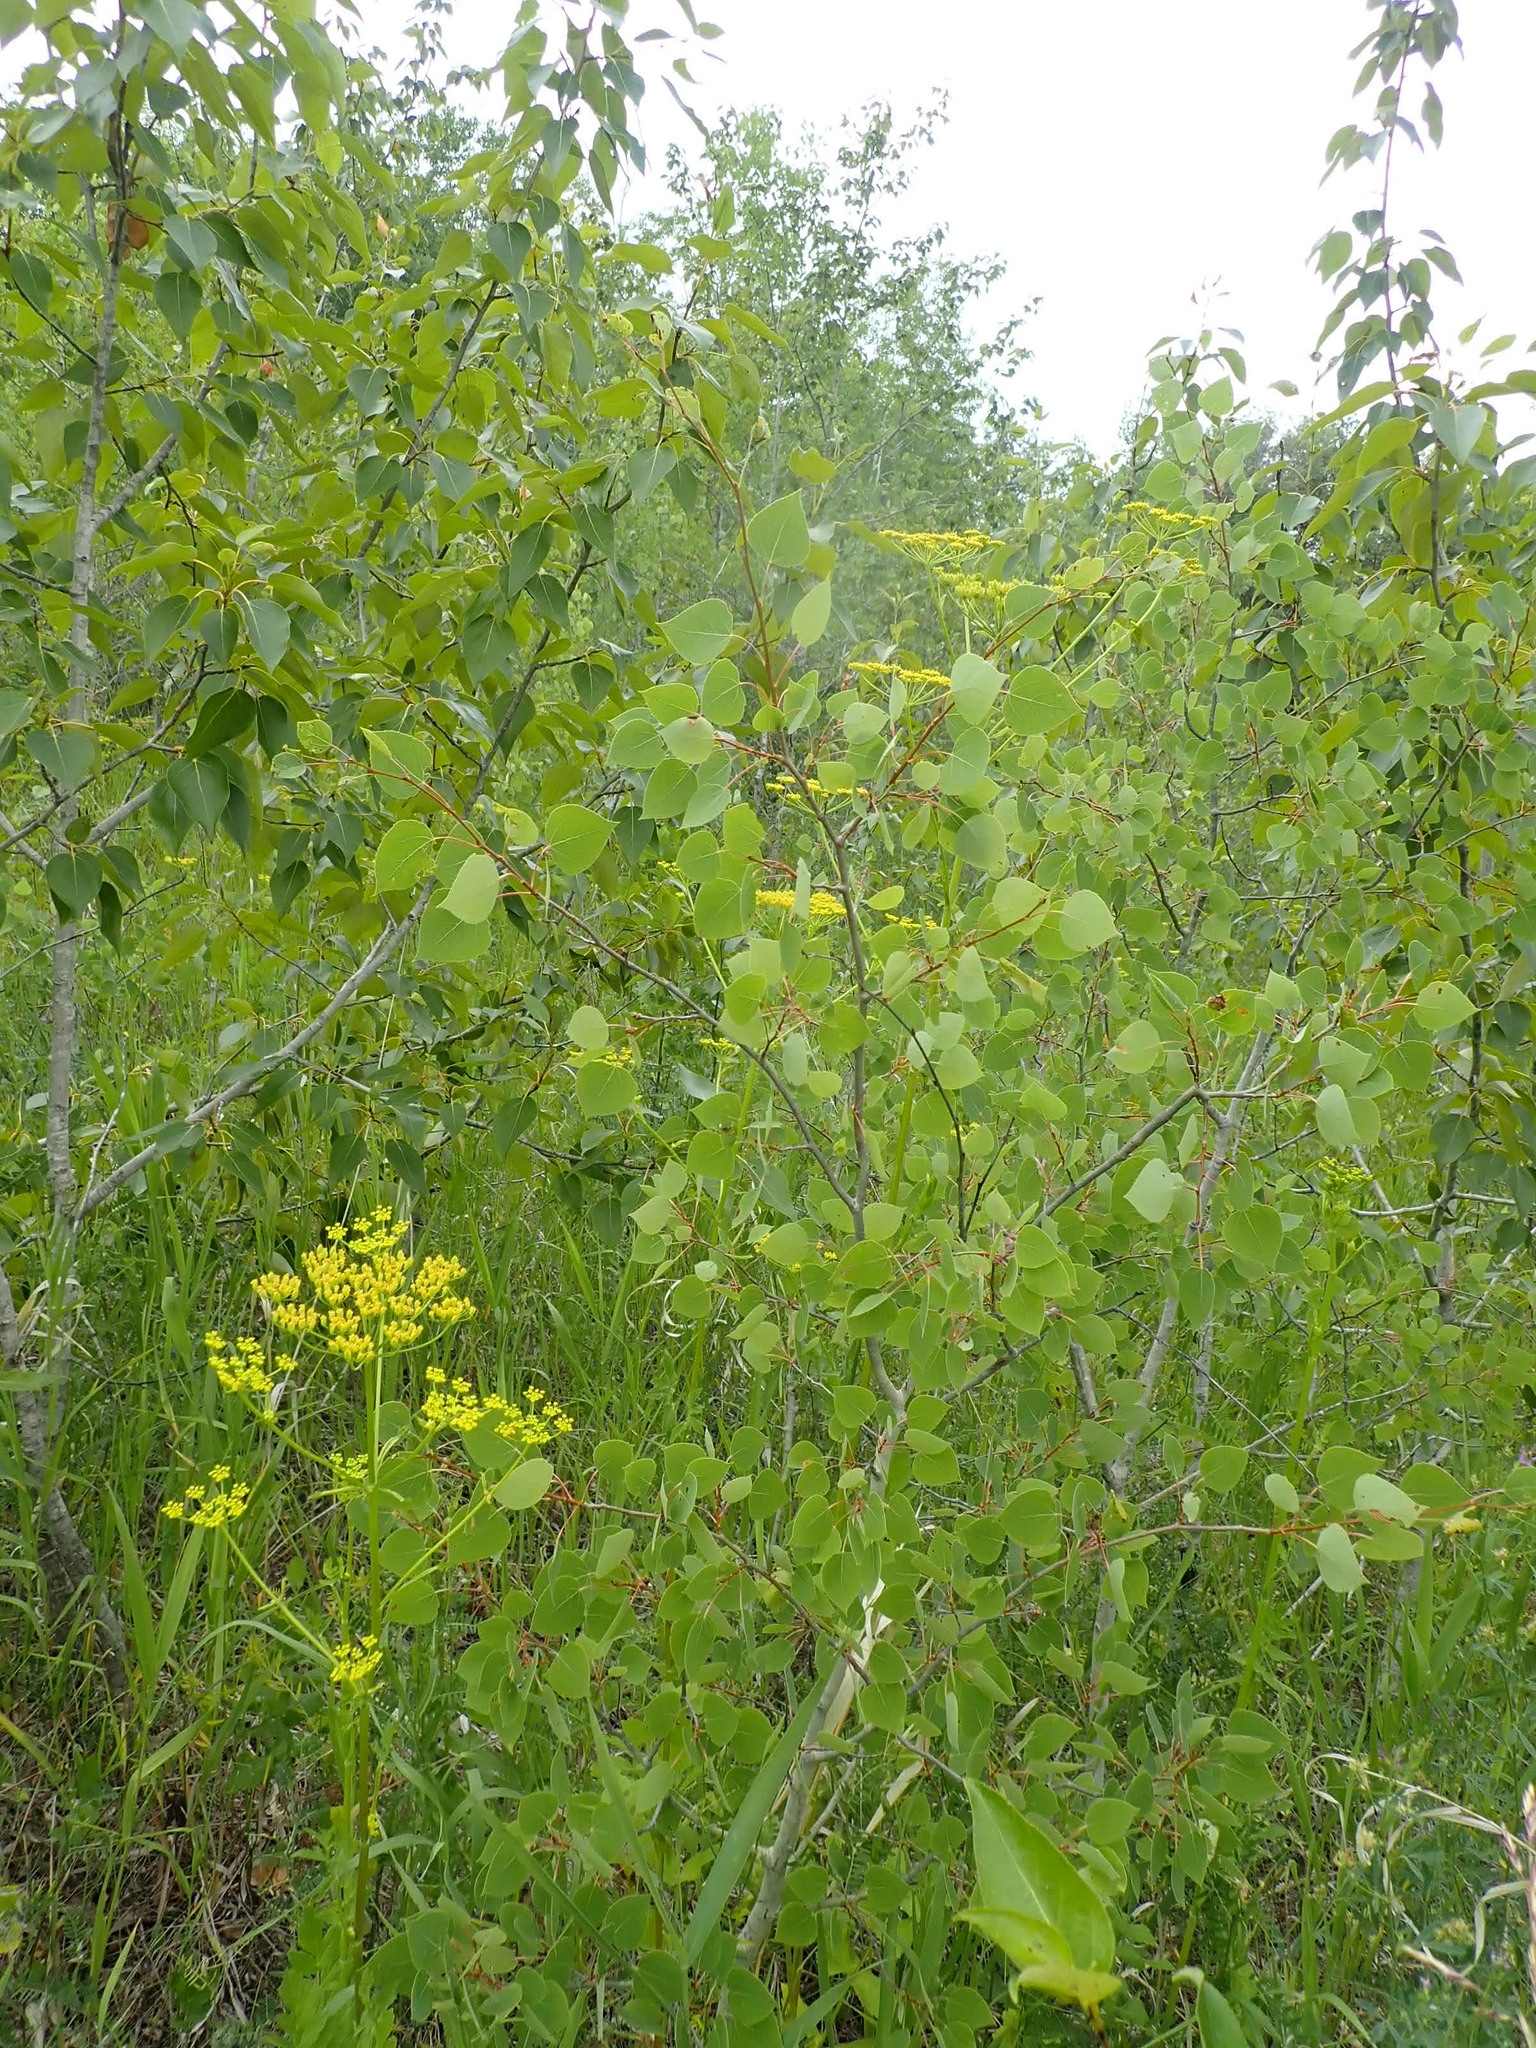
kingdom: Plantae
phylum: Tracheophyta
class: Magnoliopsida
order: Malpighiales
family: Salicaceae
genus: Populus
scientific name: Populus tremuloides
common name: Quaking aspen
